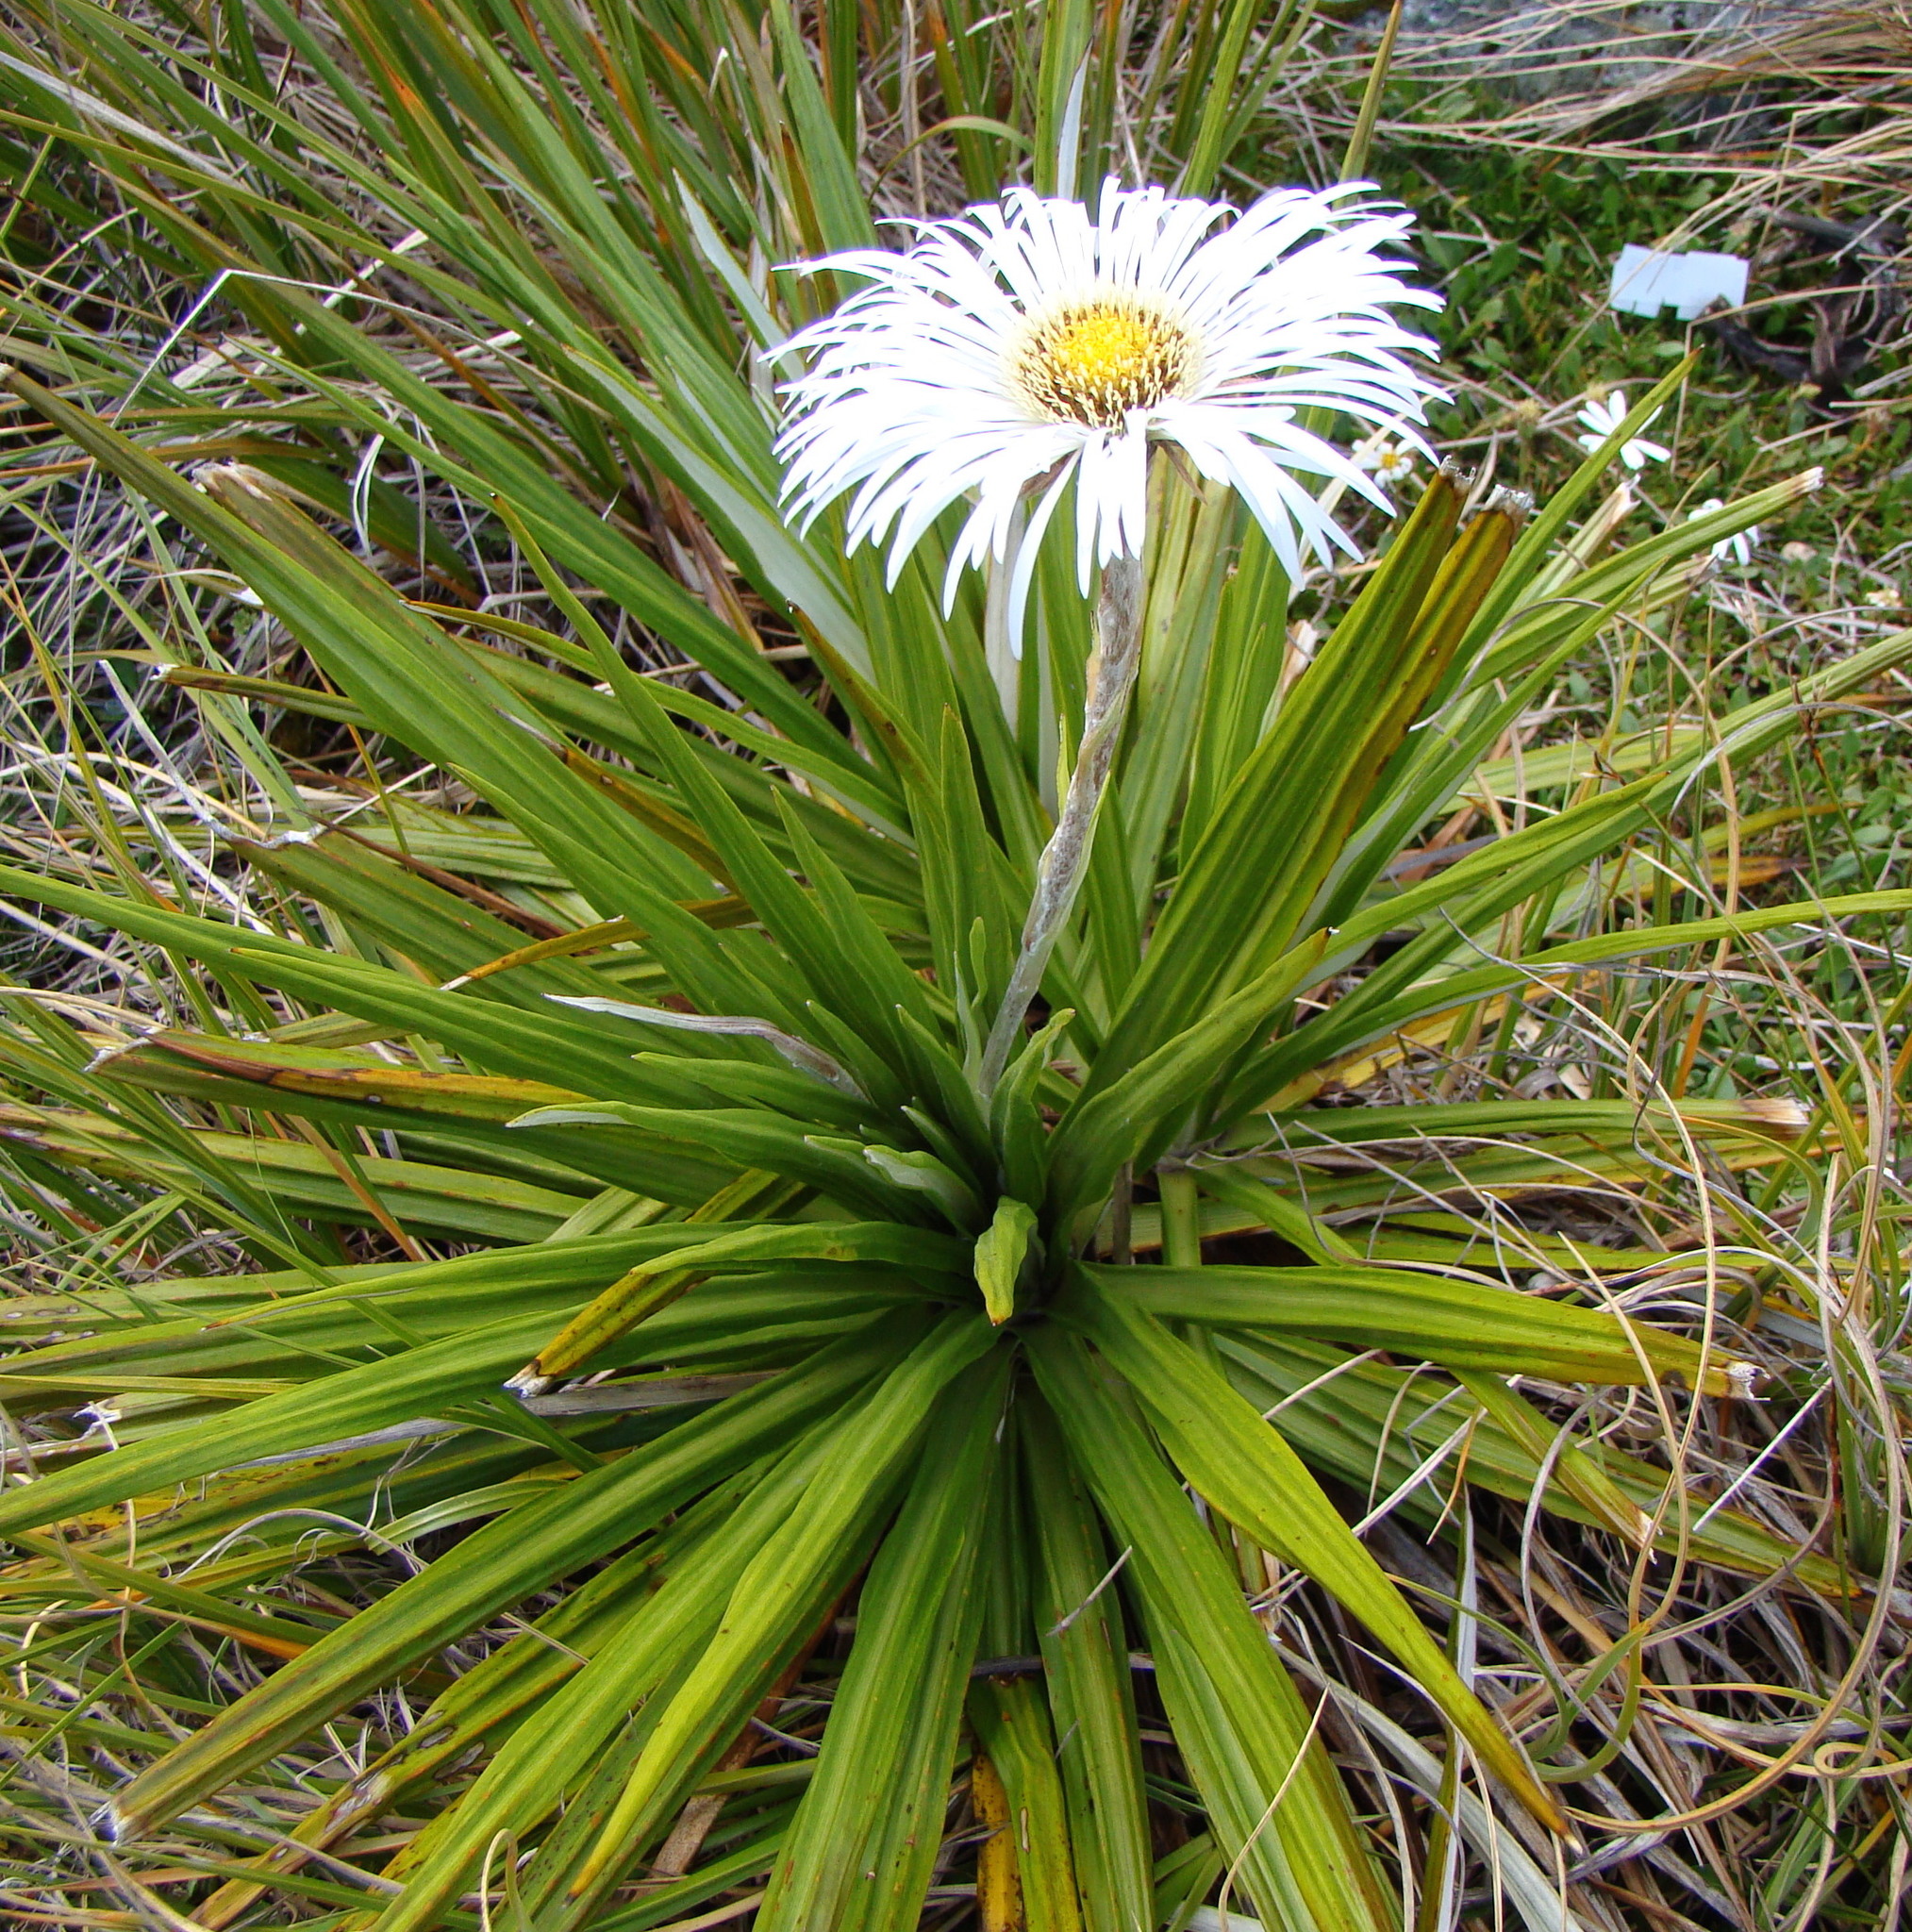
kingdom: Plantae
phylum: Tracheophyta
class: Magnoliopsida
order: Asterales
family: Asteraceae
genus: Celmisia
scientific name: Celmisia petriei
